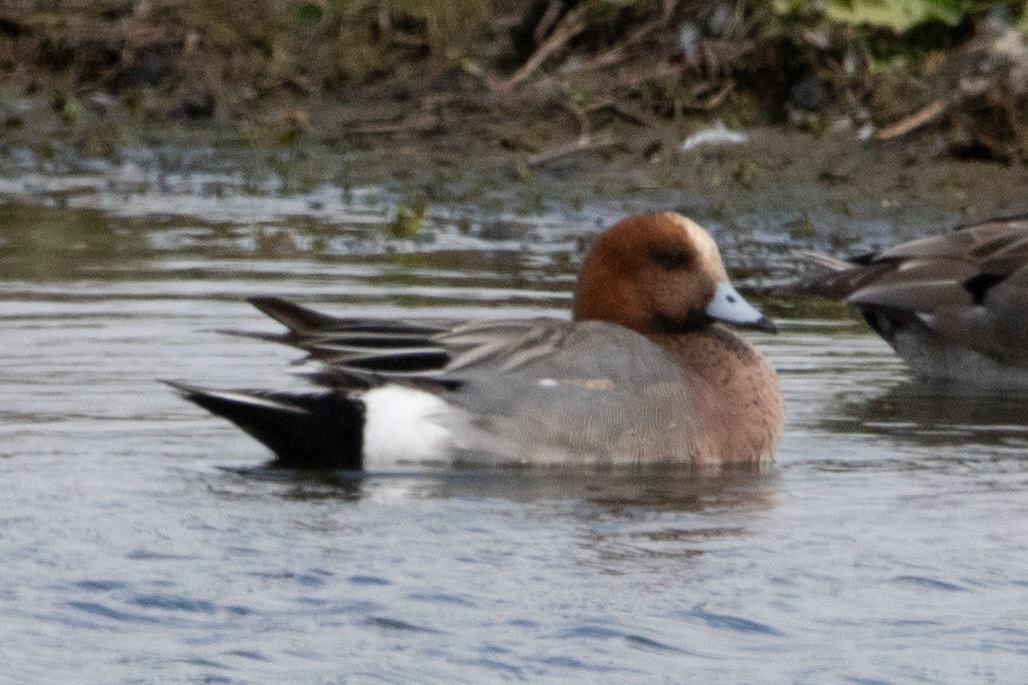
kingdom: Animalia
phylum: Chordata
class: Aves
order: Anseriformes
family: Anatidae
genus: Mareca
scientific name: Mareca penelope
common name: Eurasian wigeon
